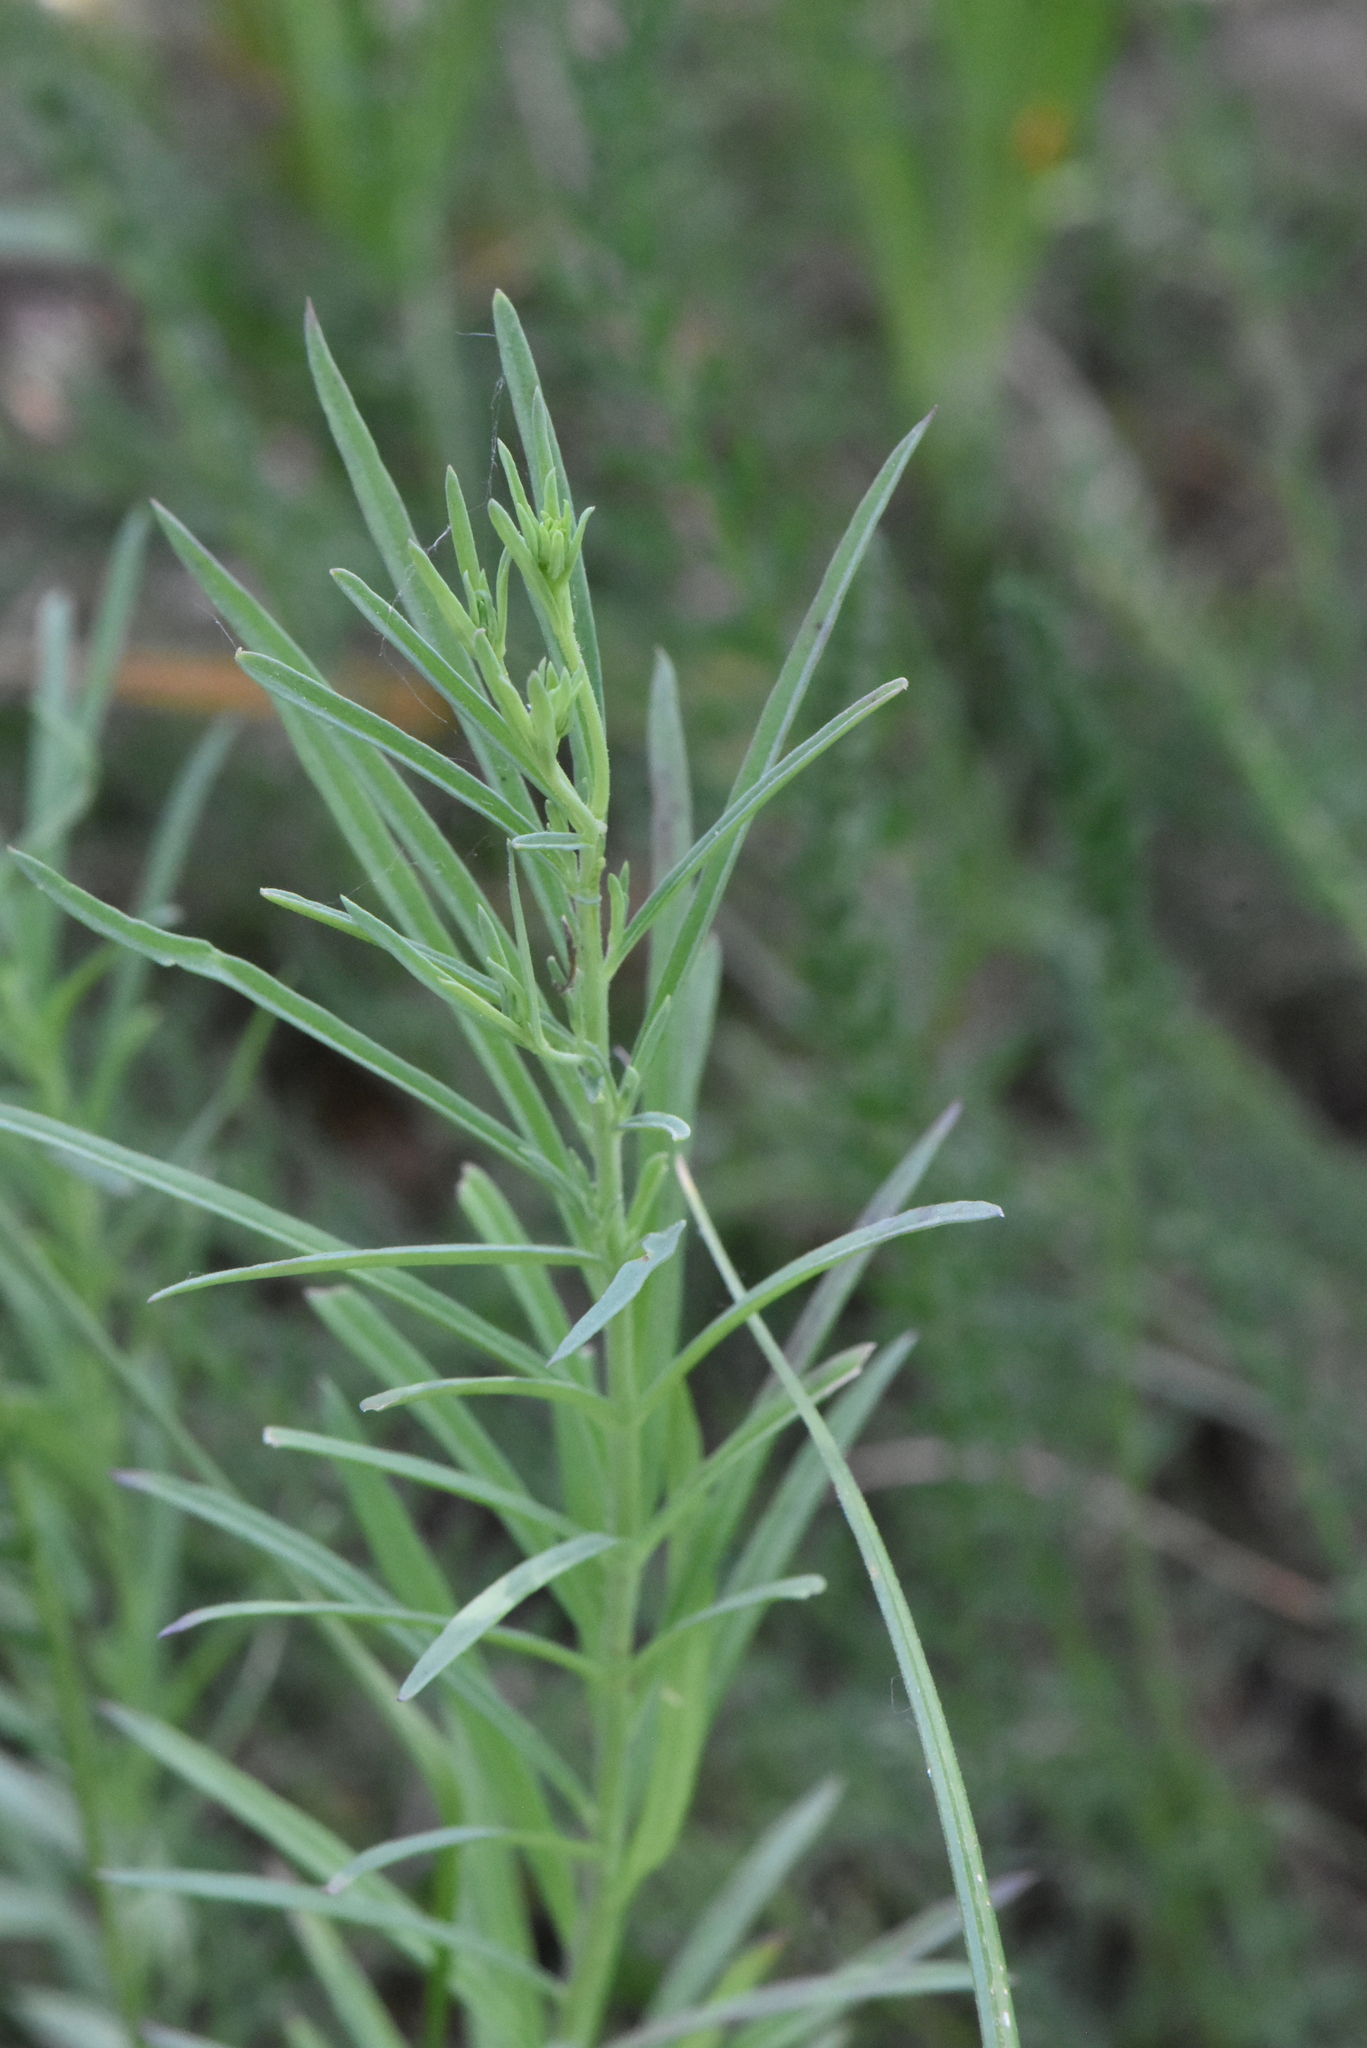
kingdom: Plantae
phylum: Tracheophyta
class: Magnoliopsida
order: Lamiales
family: Plantaginaceae
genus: Linaria
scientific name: Linaria vulgaris
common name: Butter and eggs
